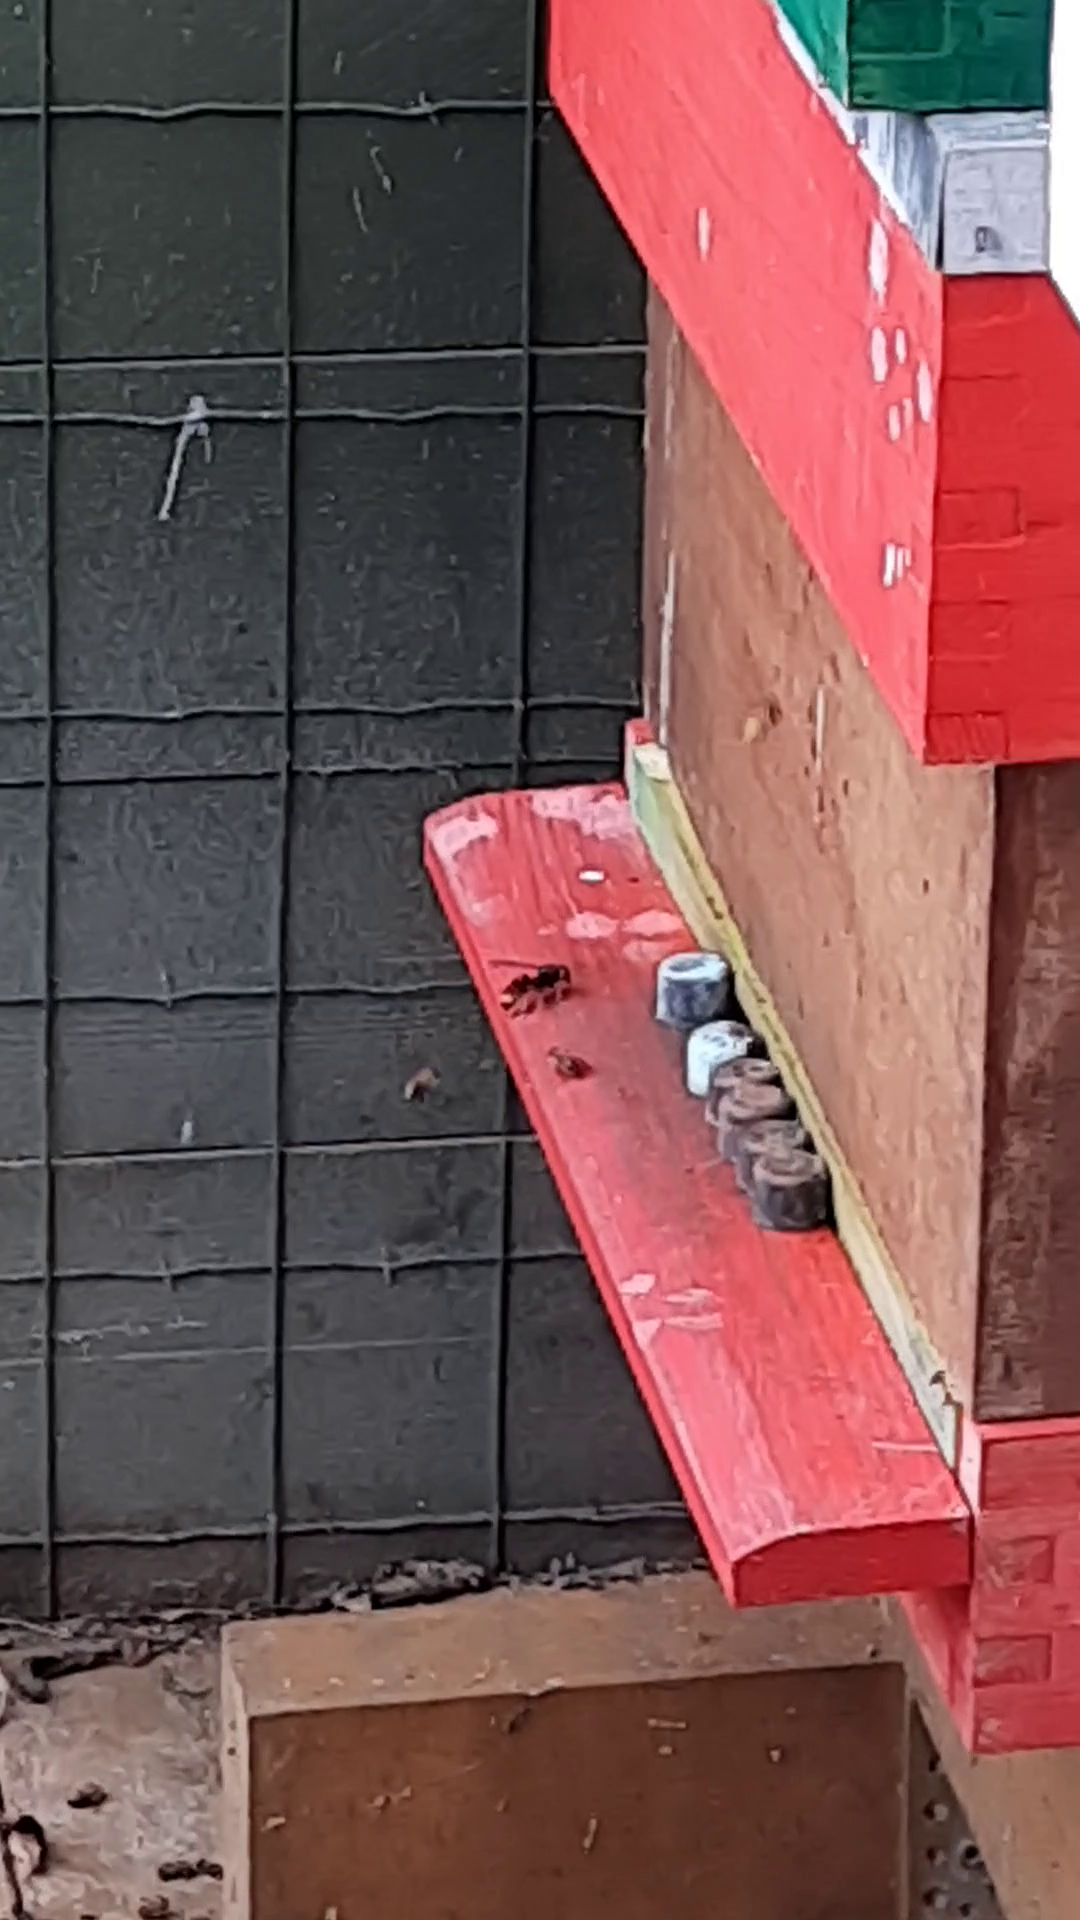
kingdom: Animalia
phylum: Arthropoda
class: Insecta
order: Hymenoptera
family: Vespidae
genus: Vespa
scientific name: Vespa velutina
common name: Asian hornet
